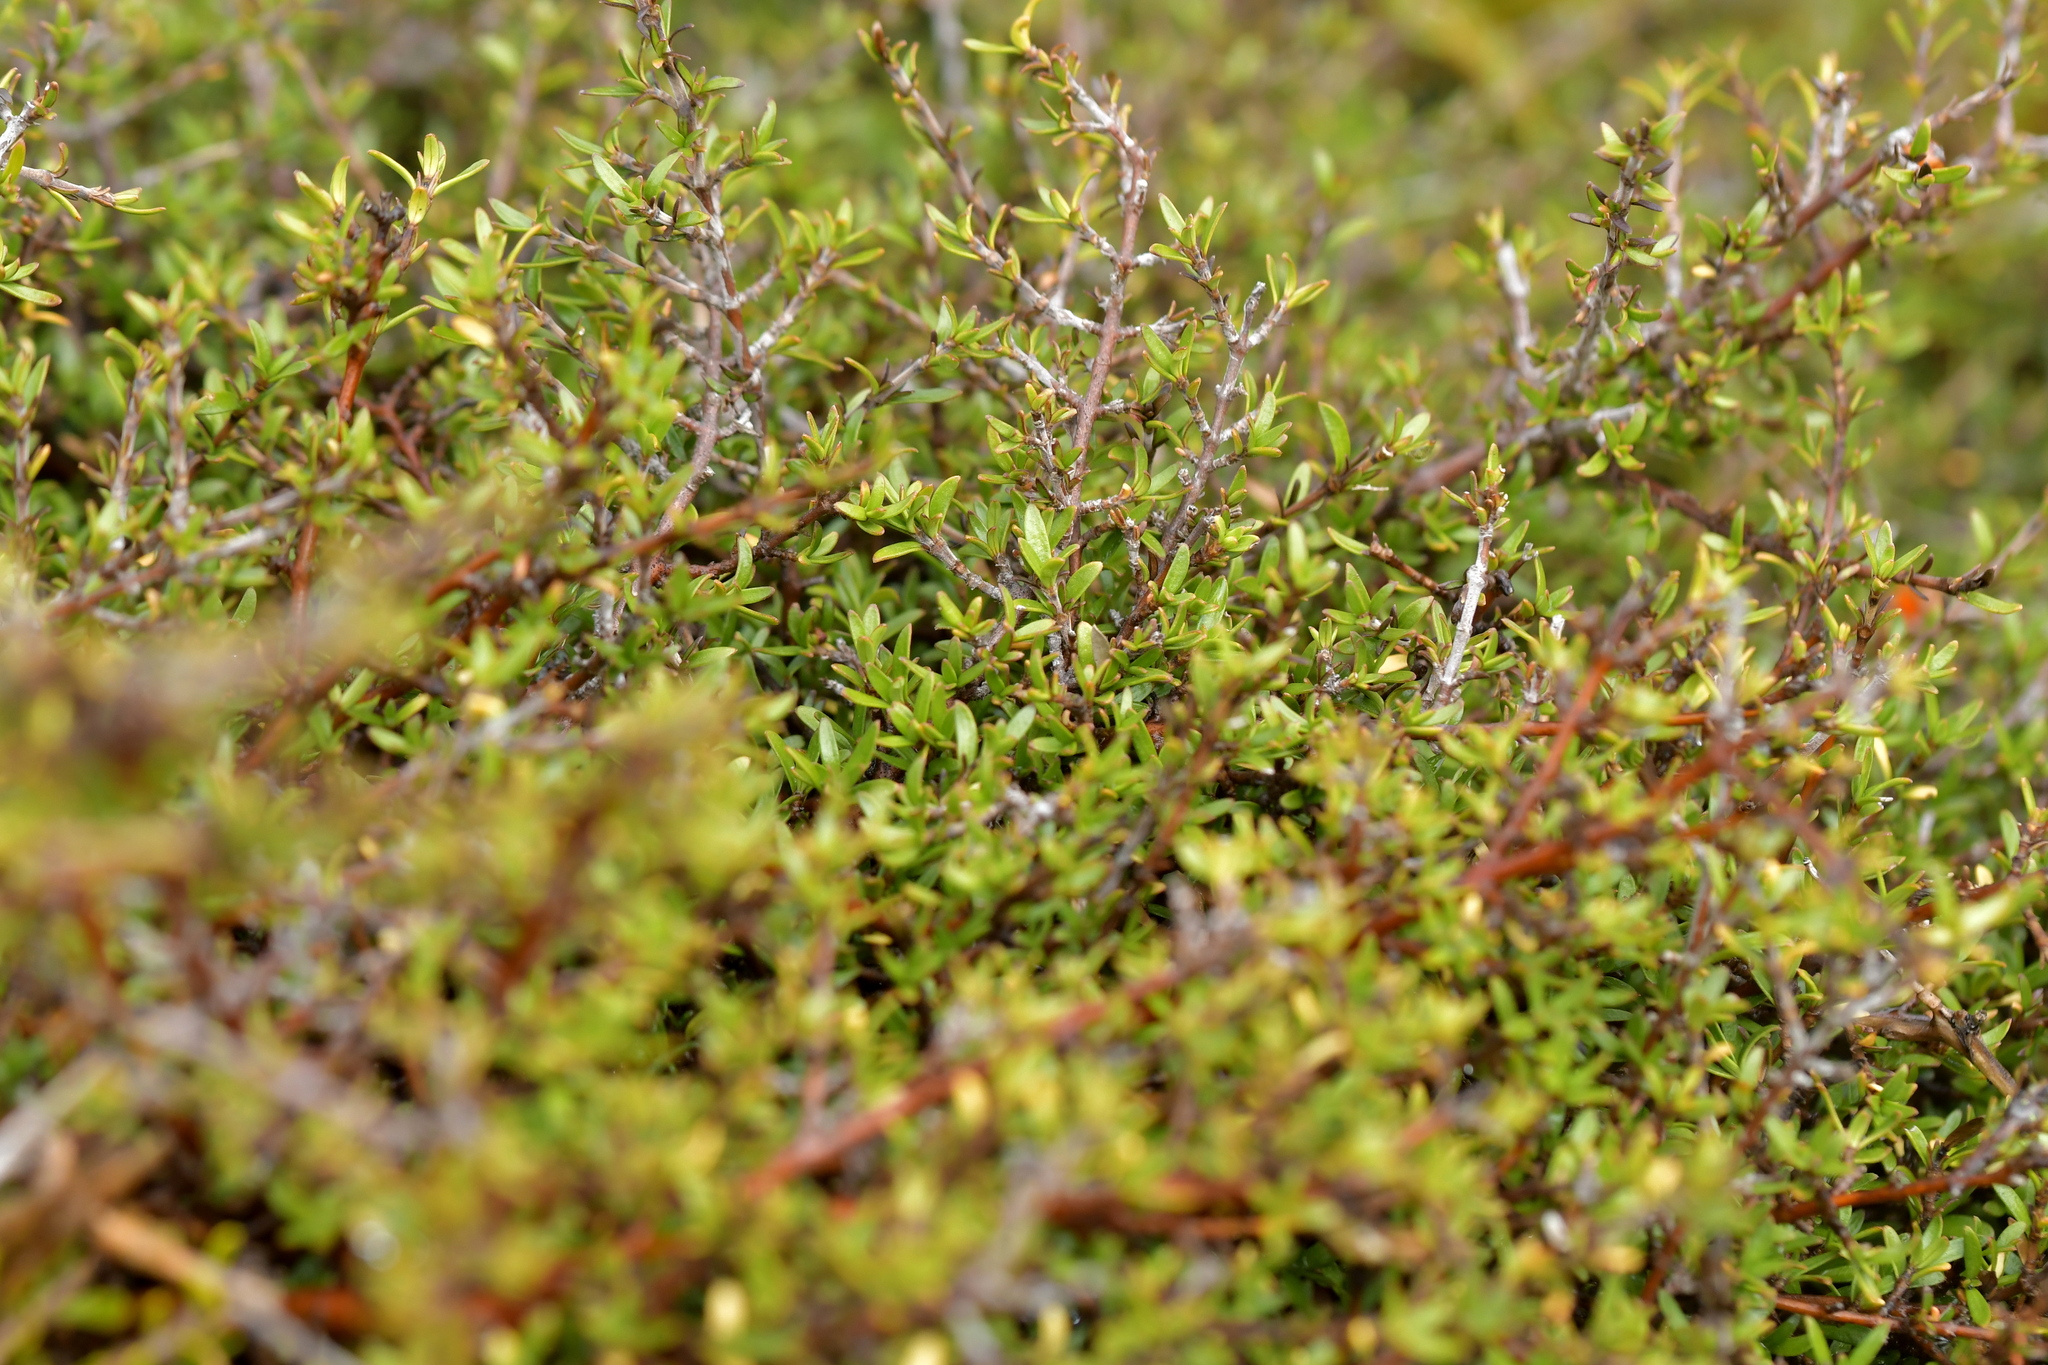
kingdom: Plantae
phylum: Tracheophyta
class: Magnoliopsida
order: Gentianales
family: Rubiaceae
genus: Coprosma
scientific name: Coprosma cheesemanii
